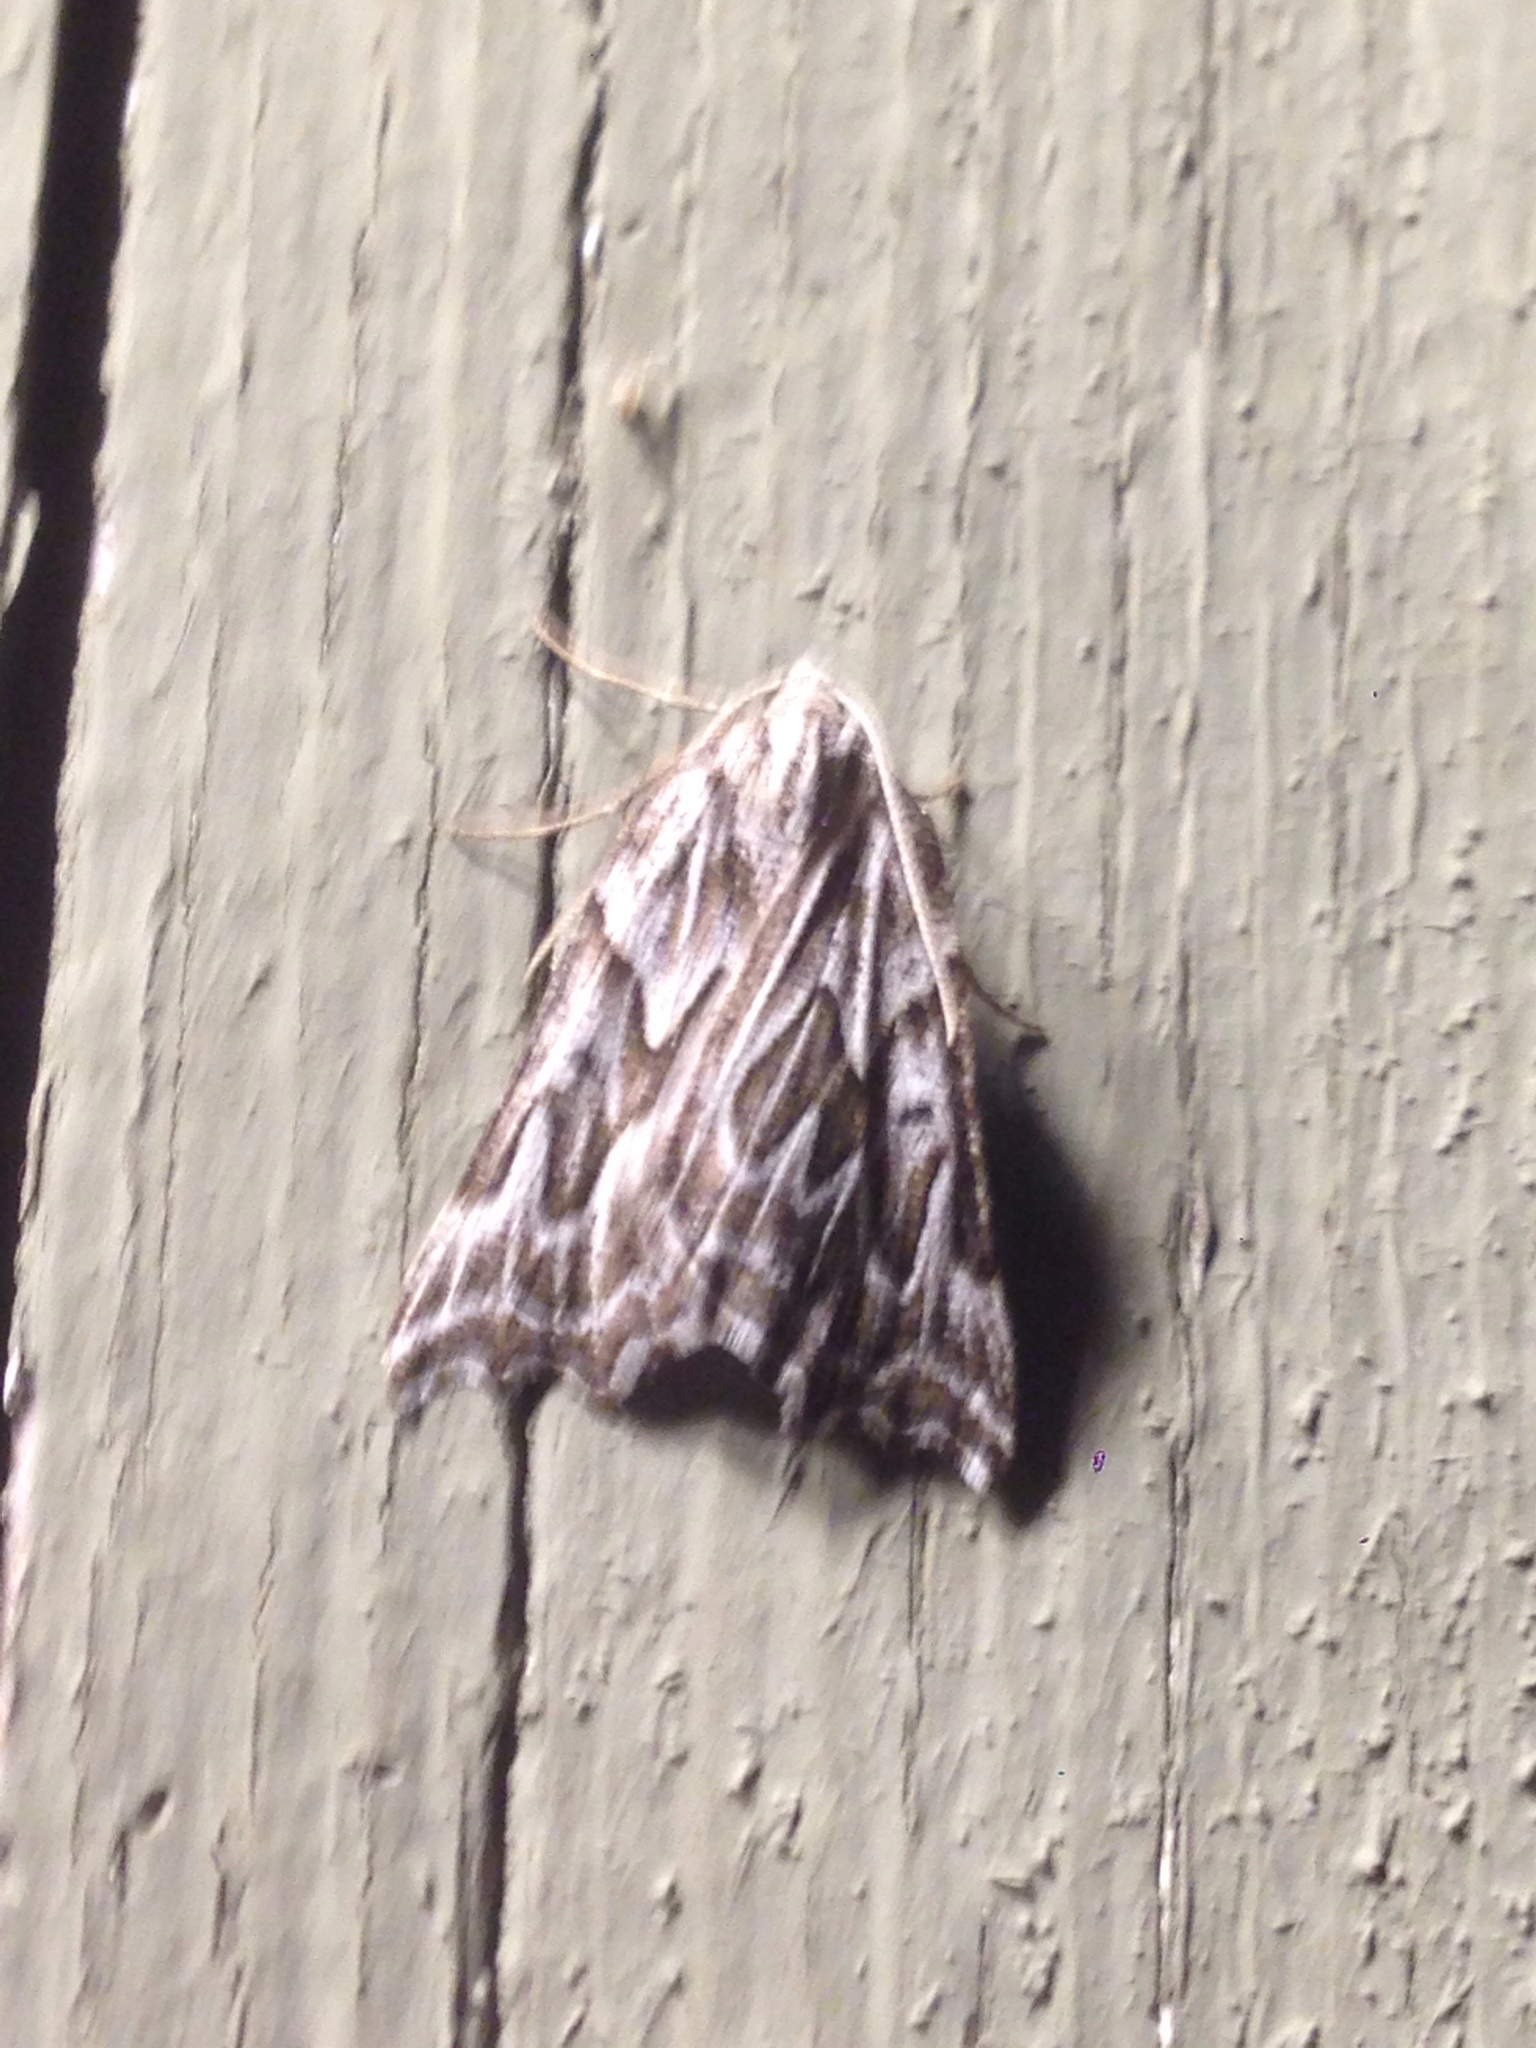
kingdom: Animalia
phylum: Arthropoda
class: Insecta
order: Lepidoptera
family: Geometridae
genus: Plataea
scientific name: Plataea personaria
